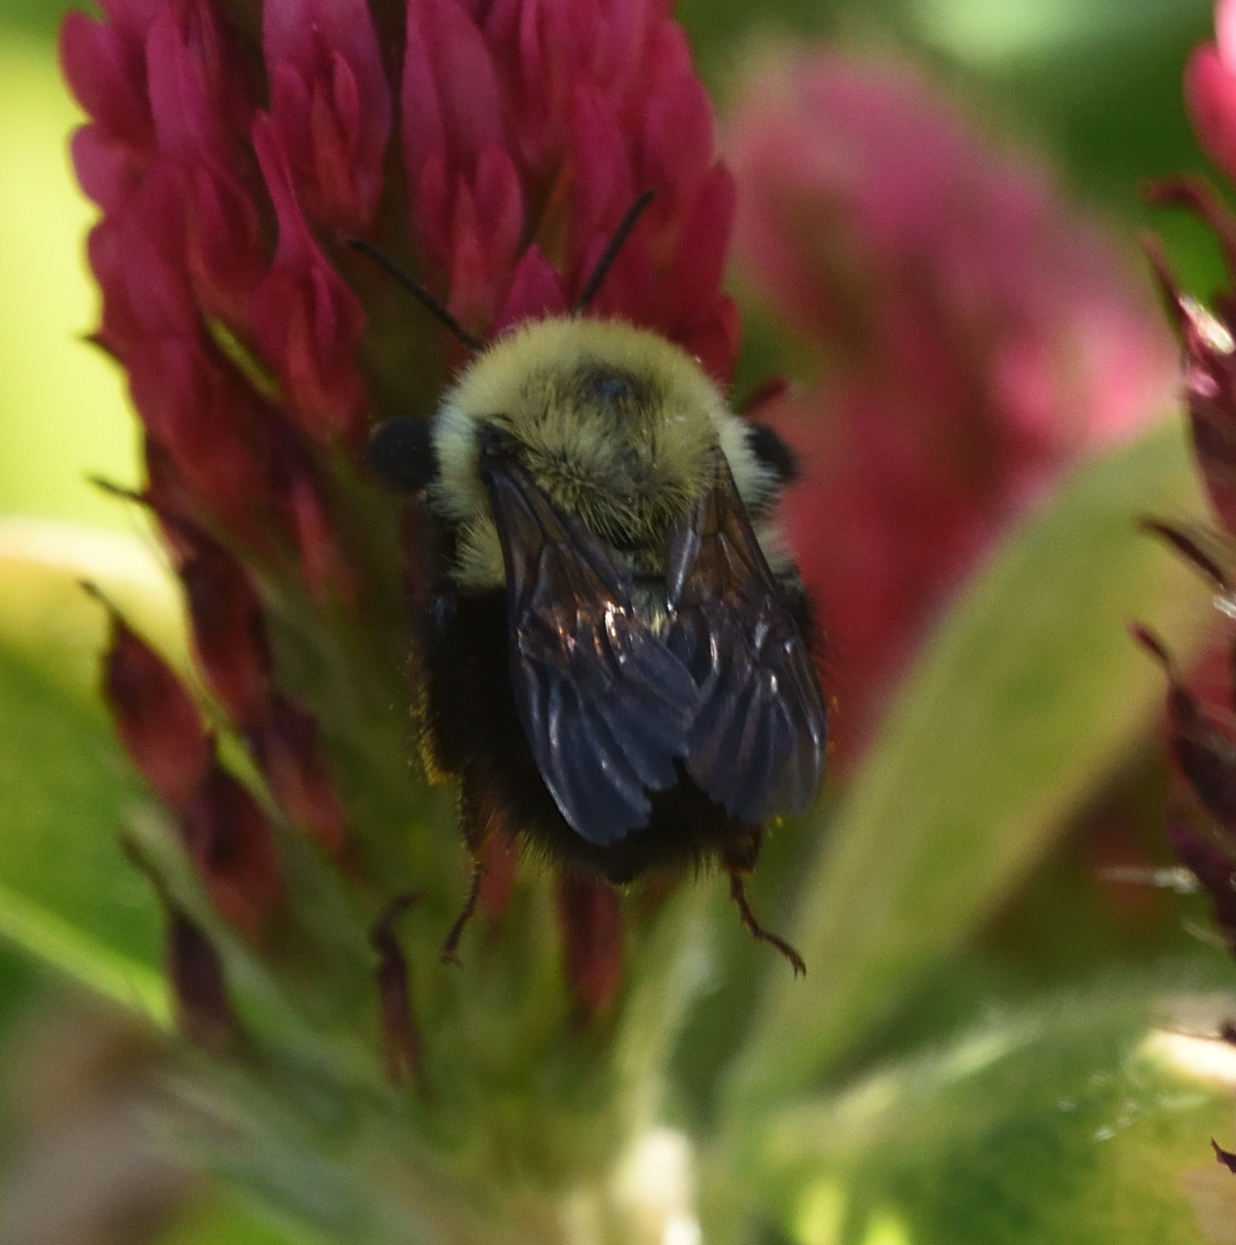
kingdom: Animalia
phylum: Arthropoda
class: Insecta
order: Hymenoptera
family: Apidae
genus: Bombus
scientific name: Bombus bimaculatus
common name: Two-spotted bumble bee
